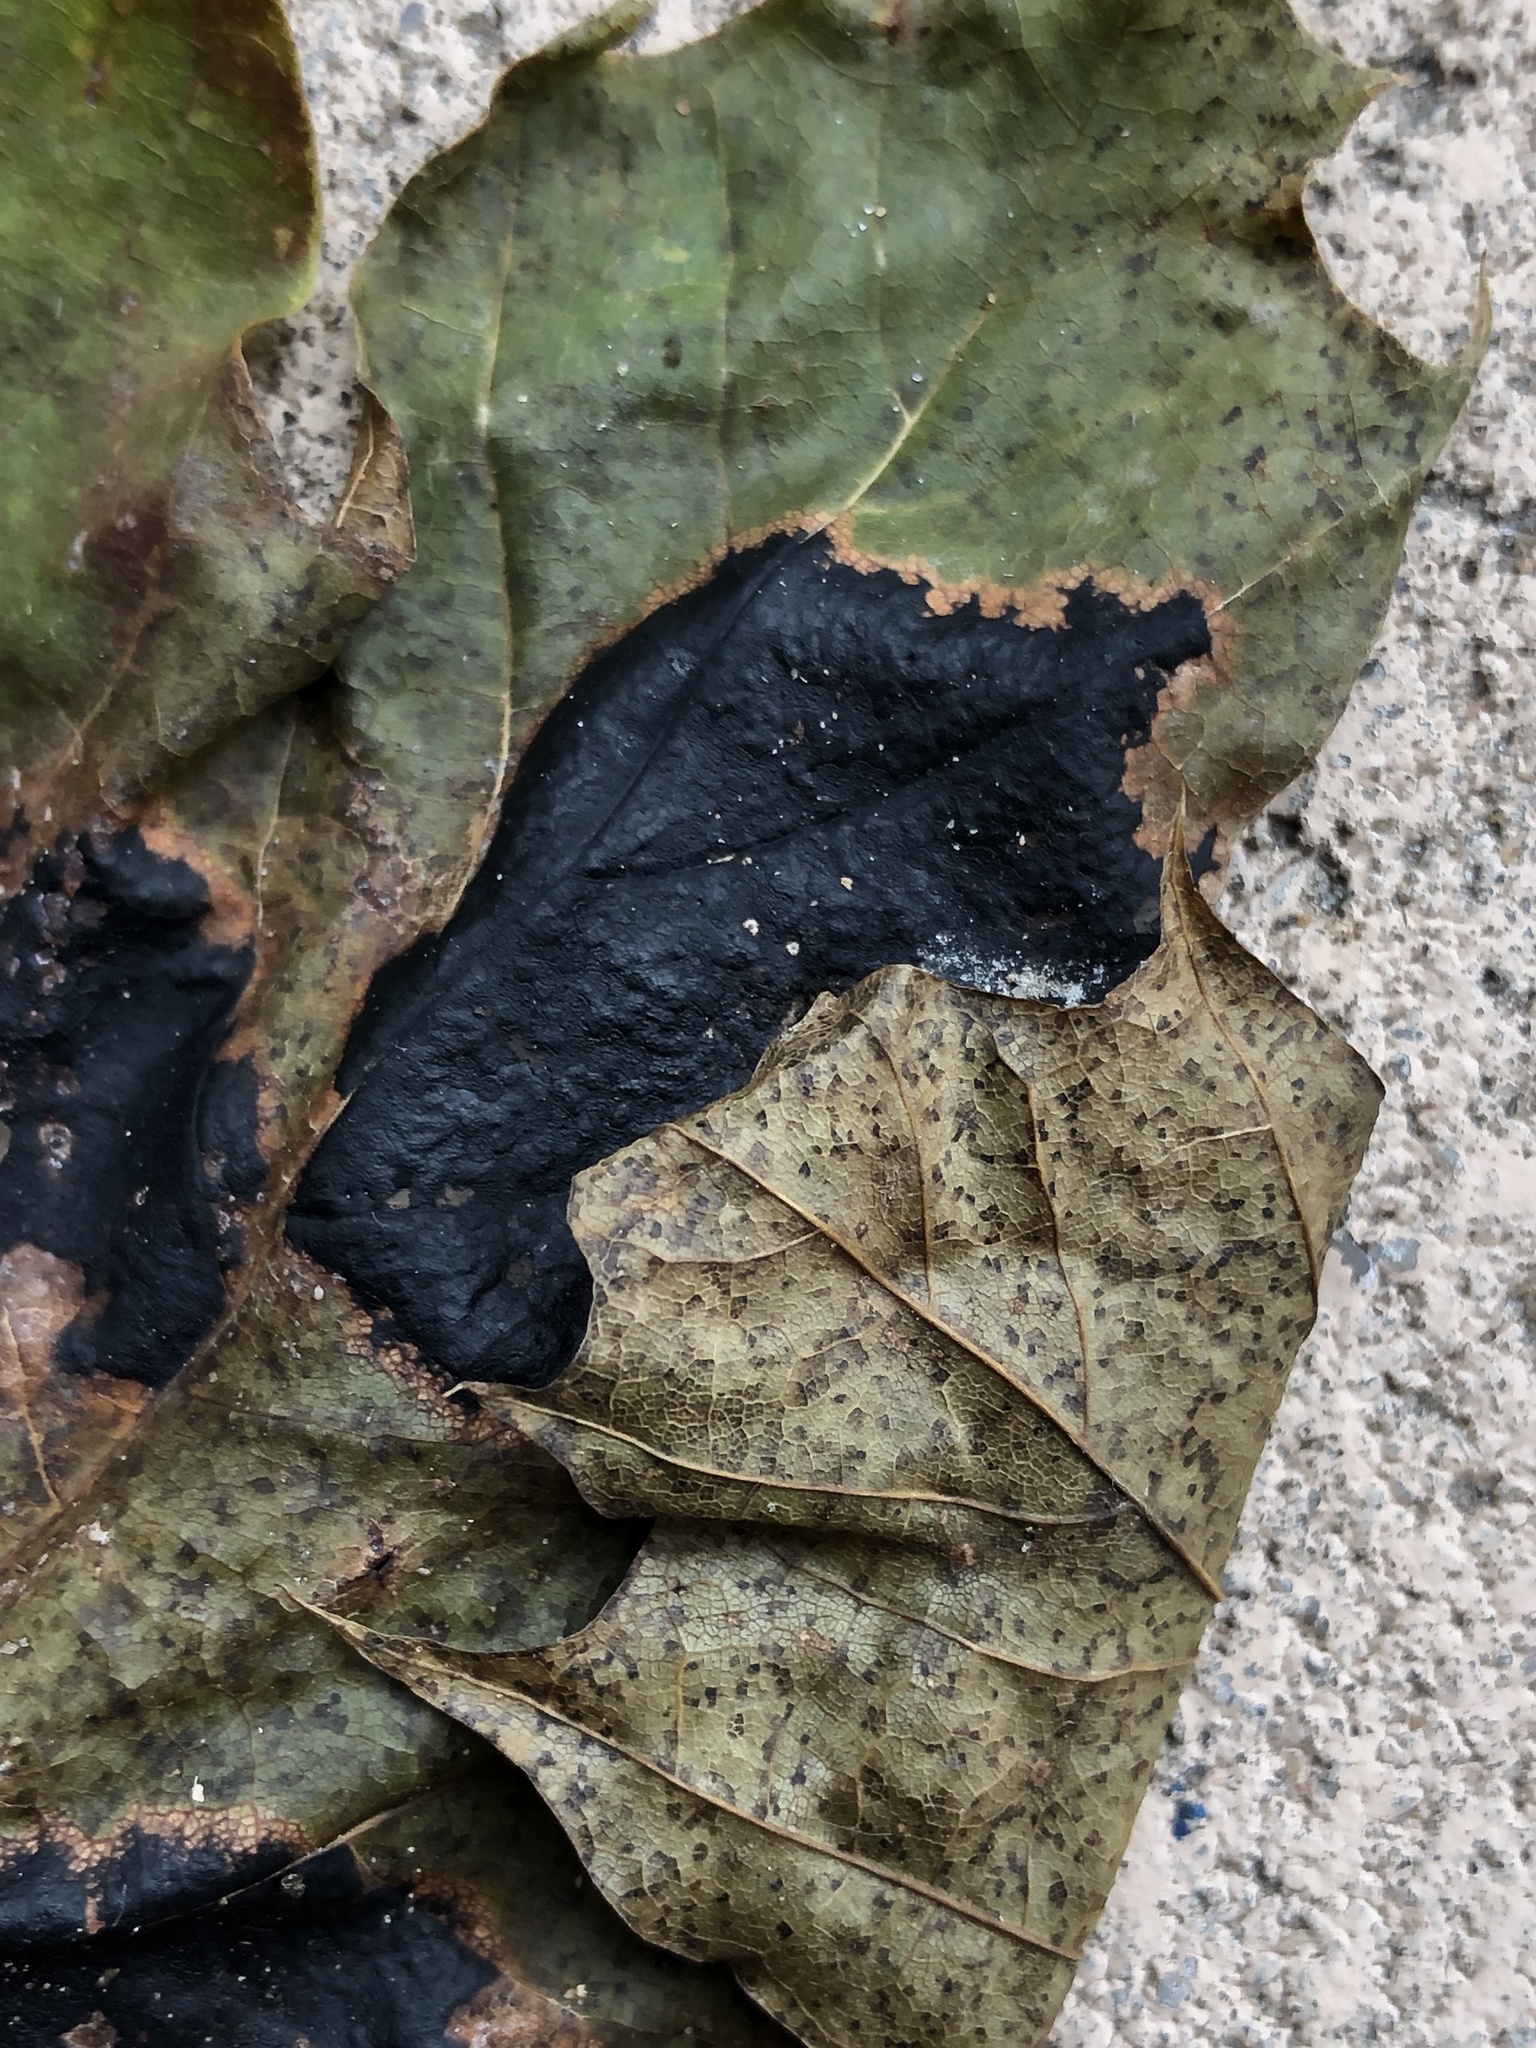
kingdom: Fungi
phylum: Ascomycota
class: Leotiomycetes
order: Rhytismatales
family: Rhytismataceae
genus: Rhytisma
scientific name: Rhytisma acerinum
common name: European tar spot
